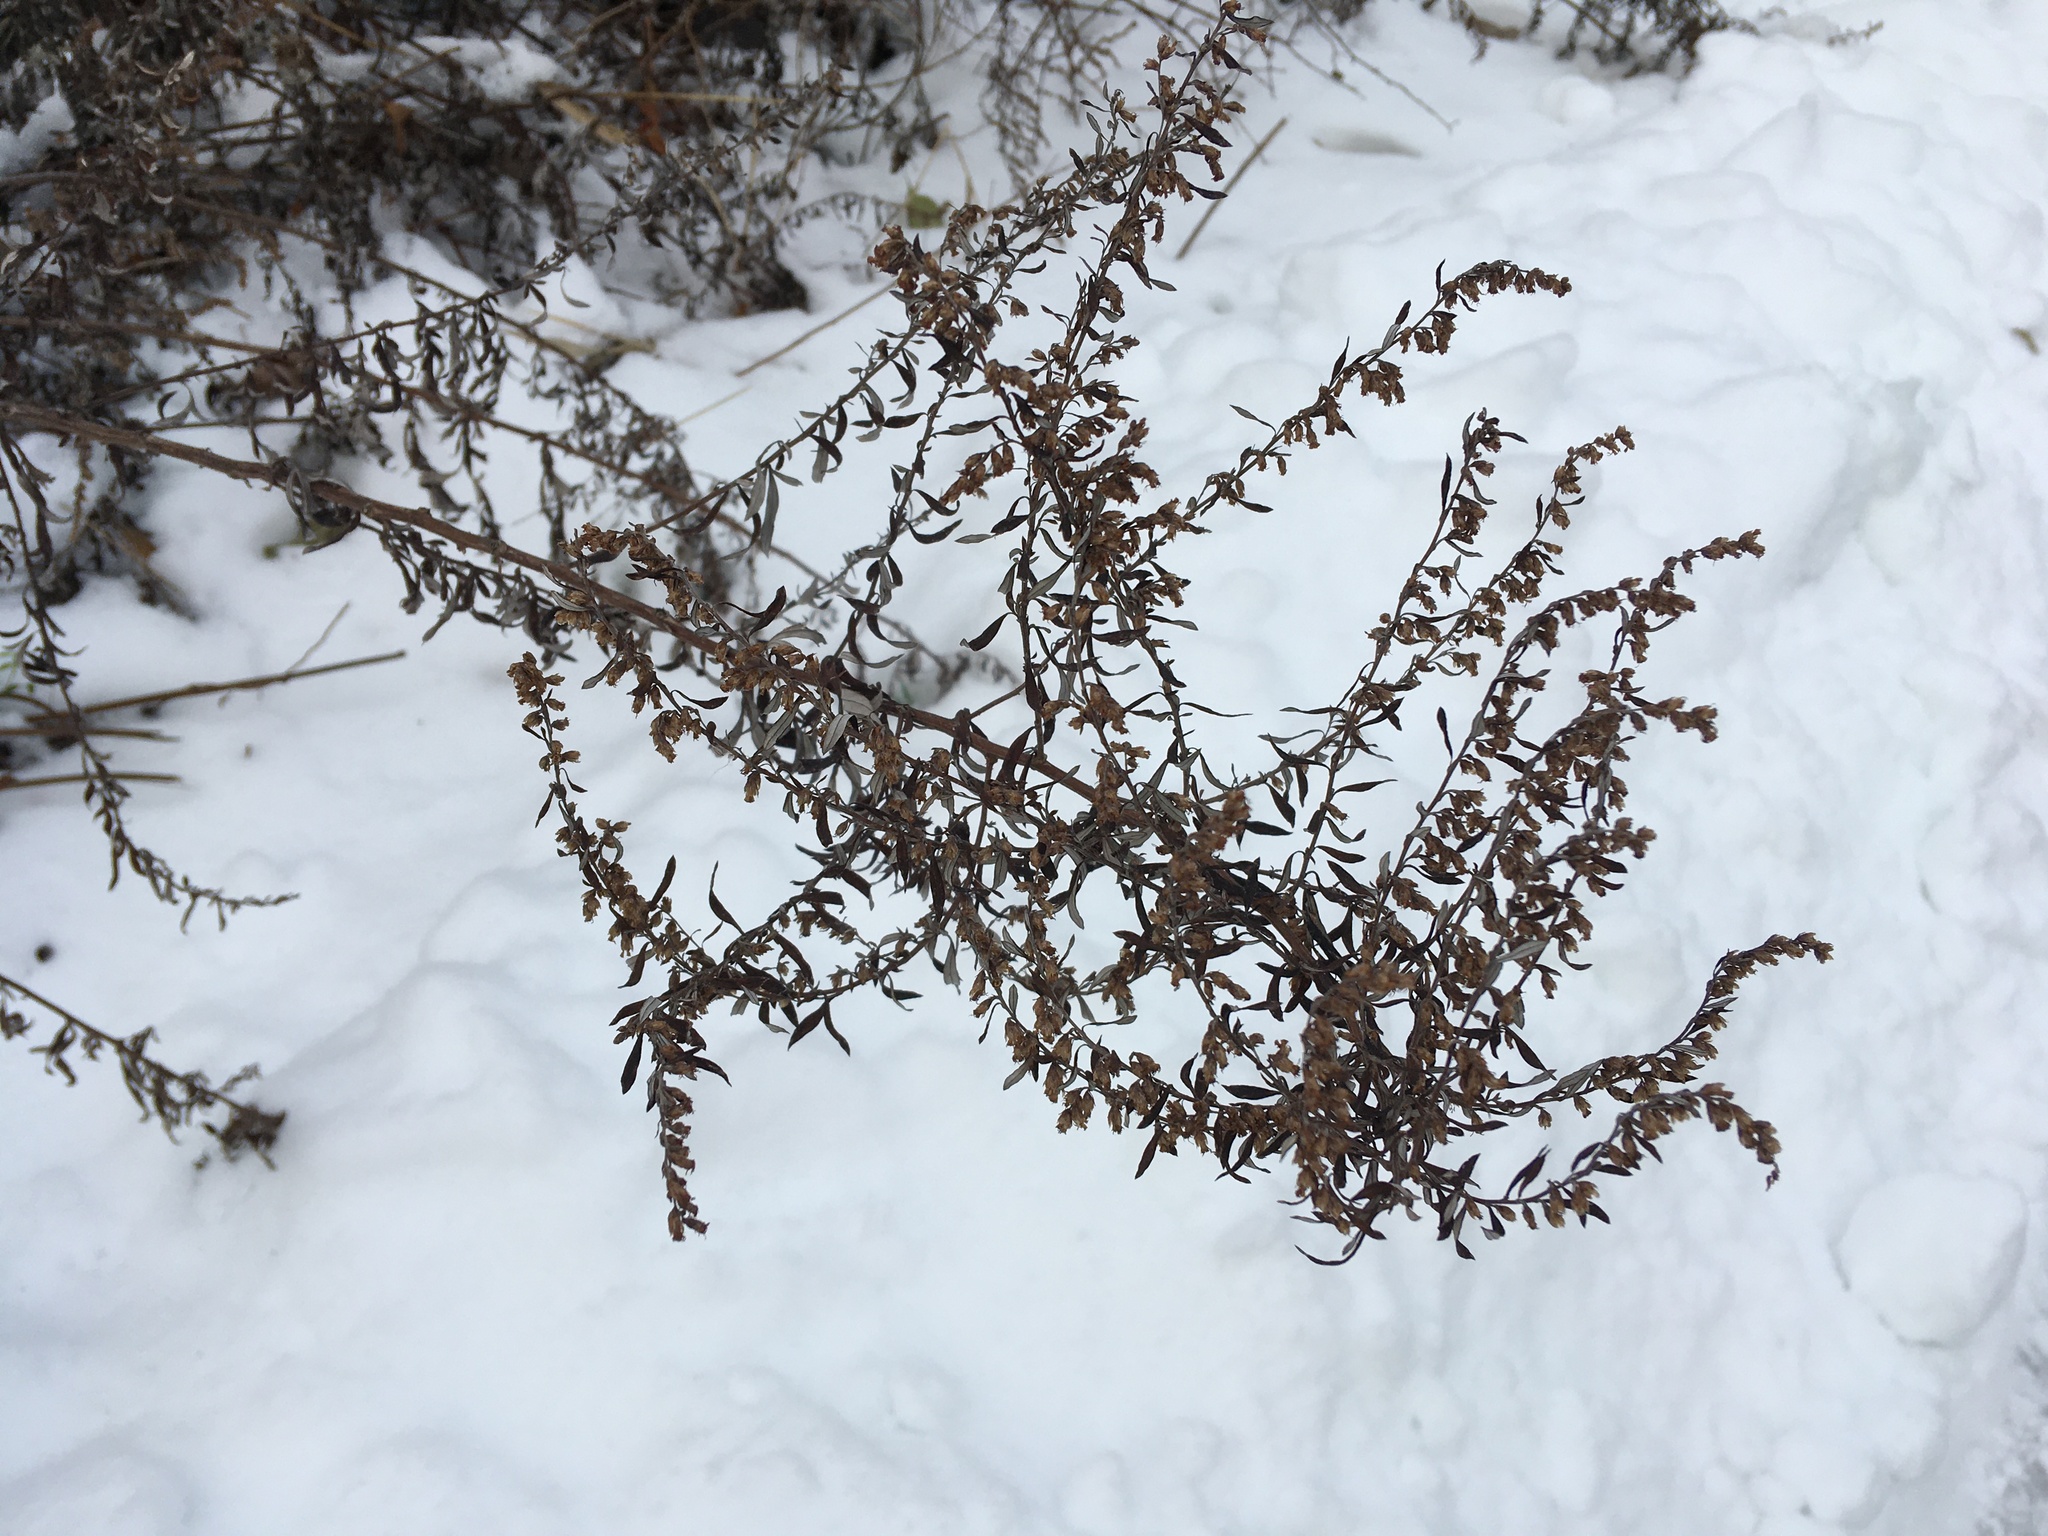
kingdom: Plantae
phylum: Tracheophyta
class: Magnoliopsida
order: Asterales
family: Asteraceae
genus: Artemisia
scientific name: Artemisia vulgaris
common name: Mugwort
